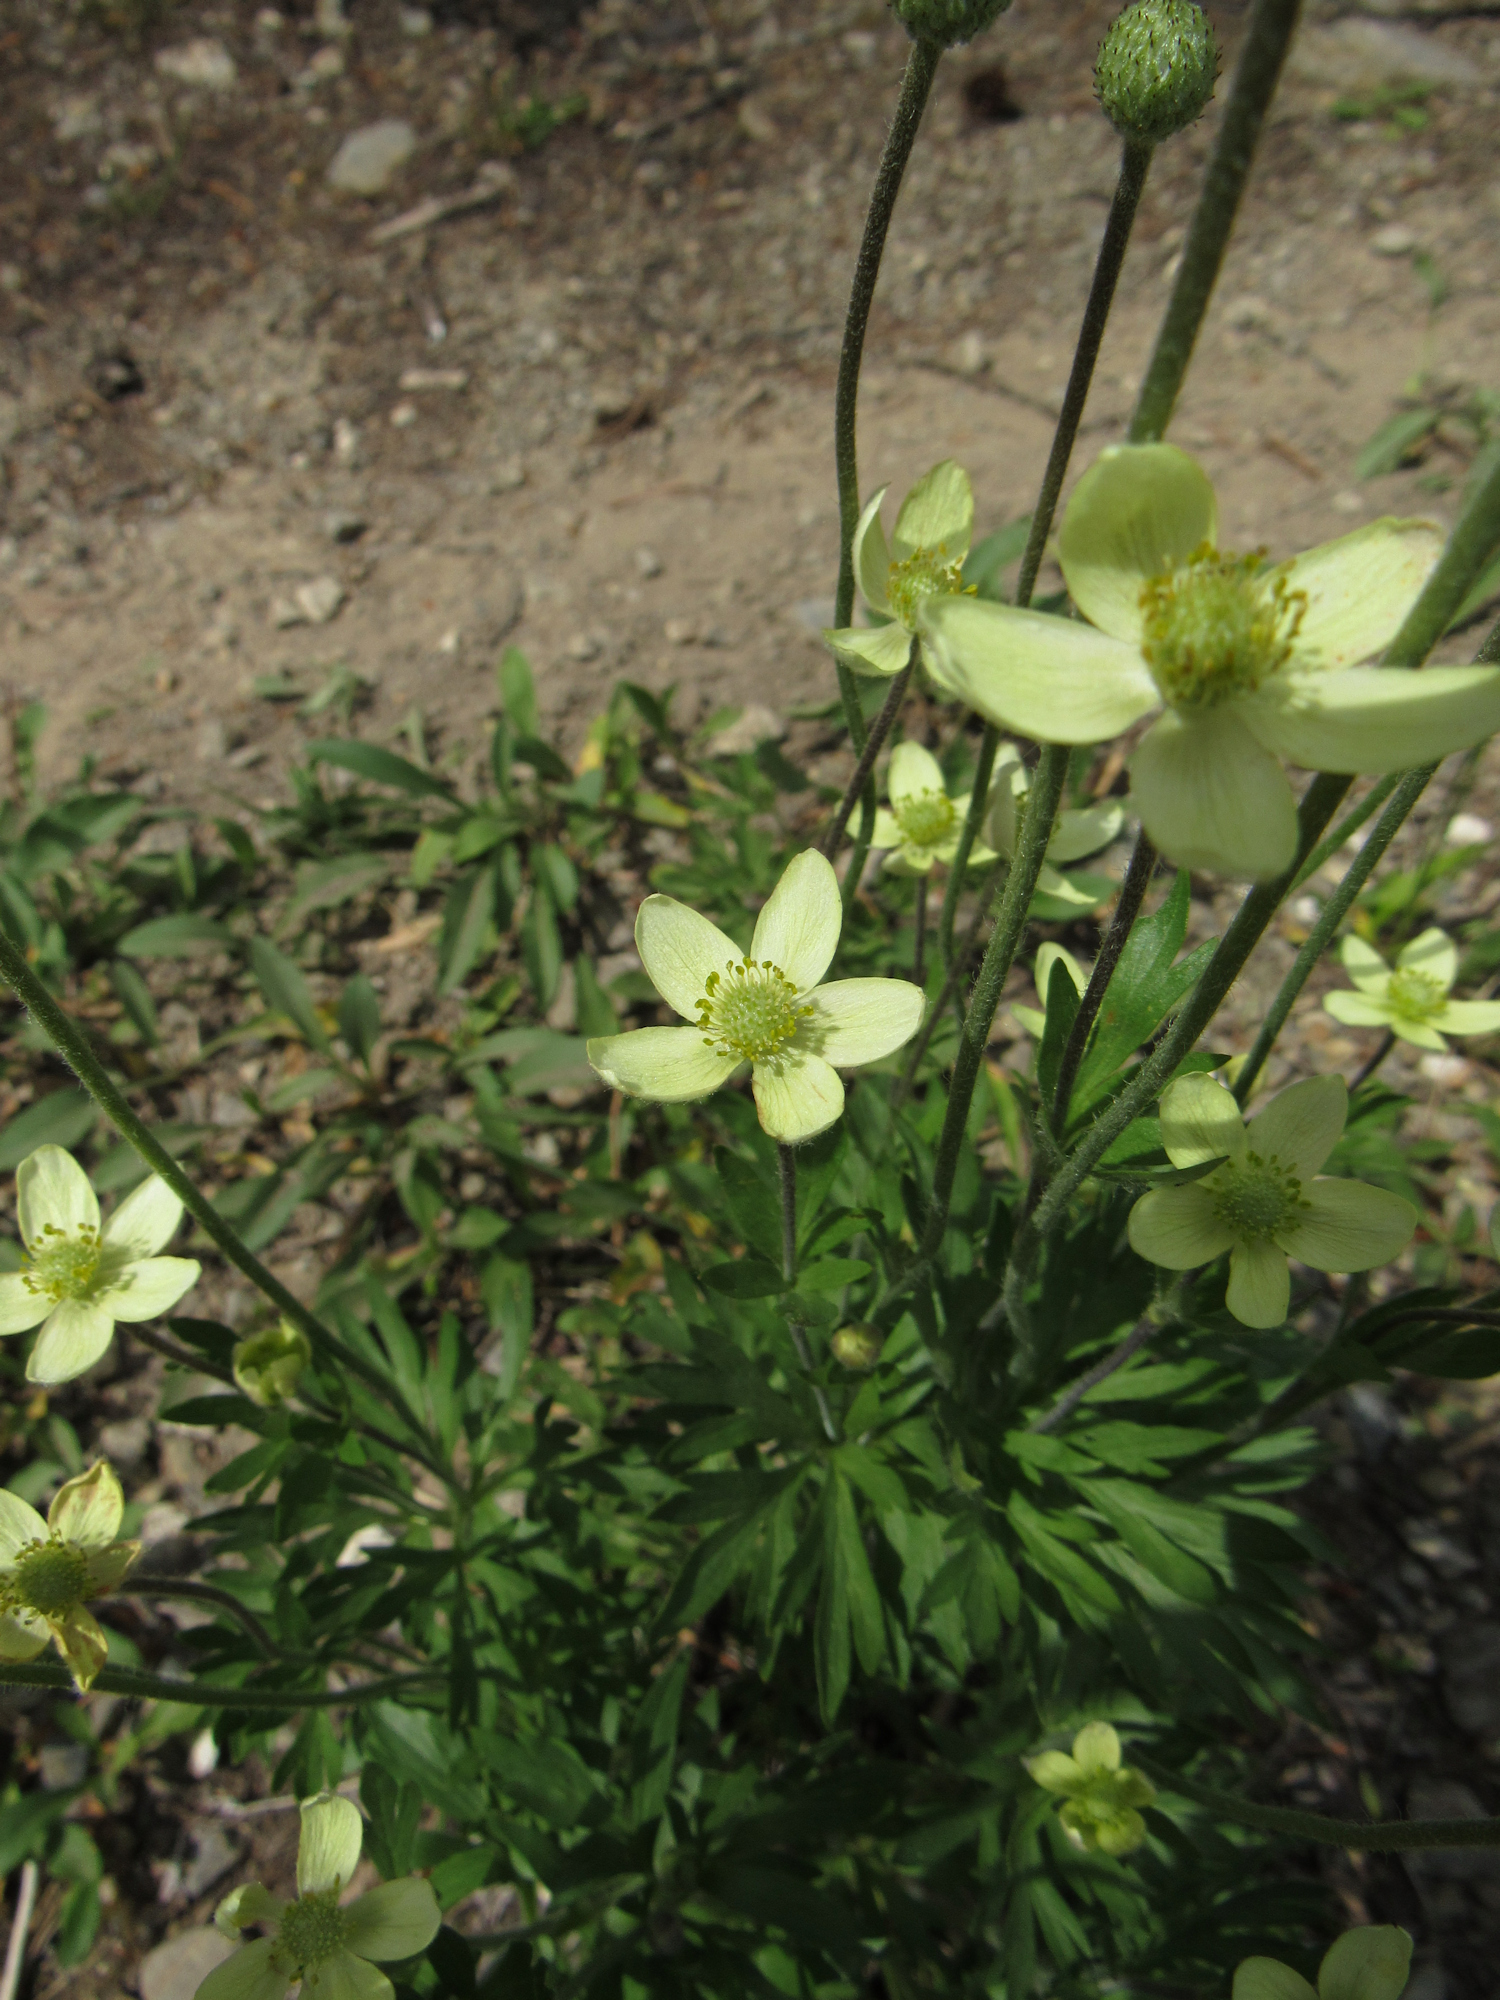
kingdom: Plantae
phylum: Tracheophyta
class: Magnoliopsida
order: Ranunculales
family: Ranunculaceae
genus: Anemone
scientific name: Anemone multifida
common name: Bird's-foot anemone
